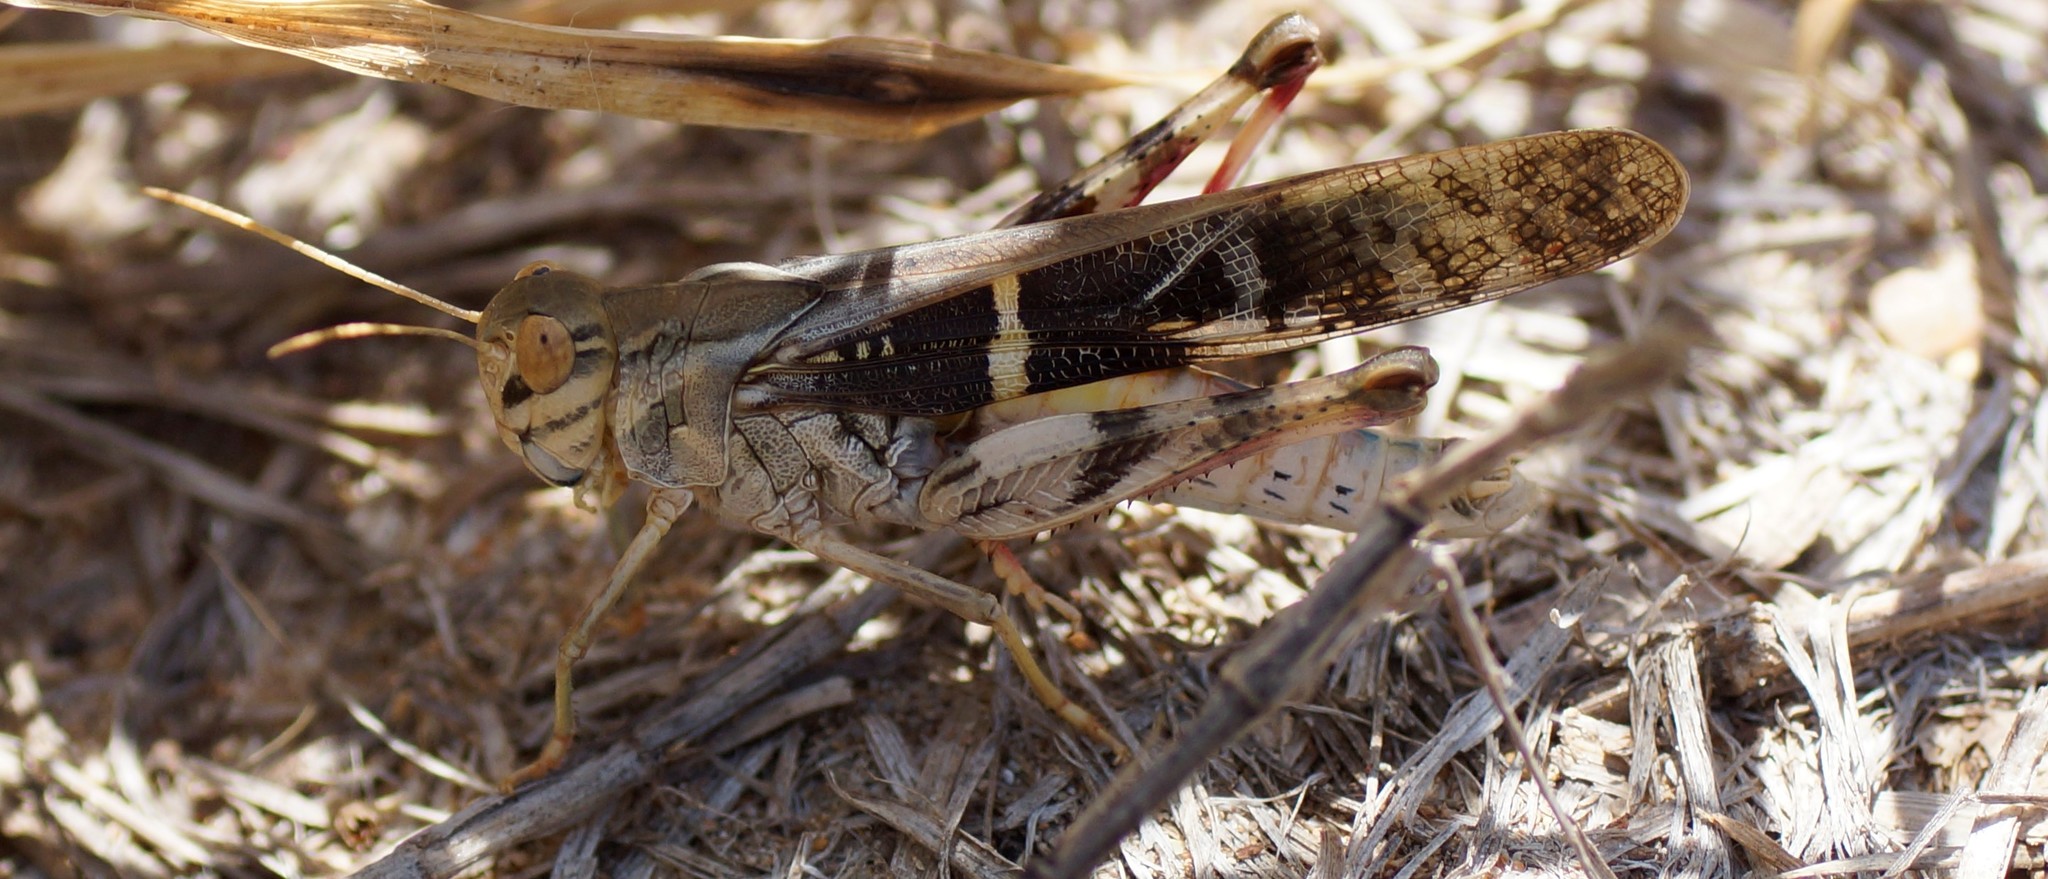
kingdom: Animalia
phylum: Arthropoda
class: Insecta
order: Orthoptera
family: Acrididae
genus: Gastrimargus
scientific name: Gastrimargus musicus
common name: Yellow-winged locust
